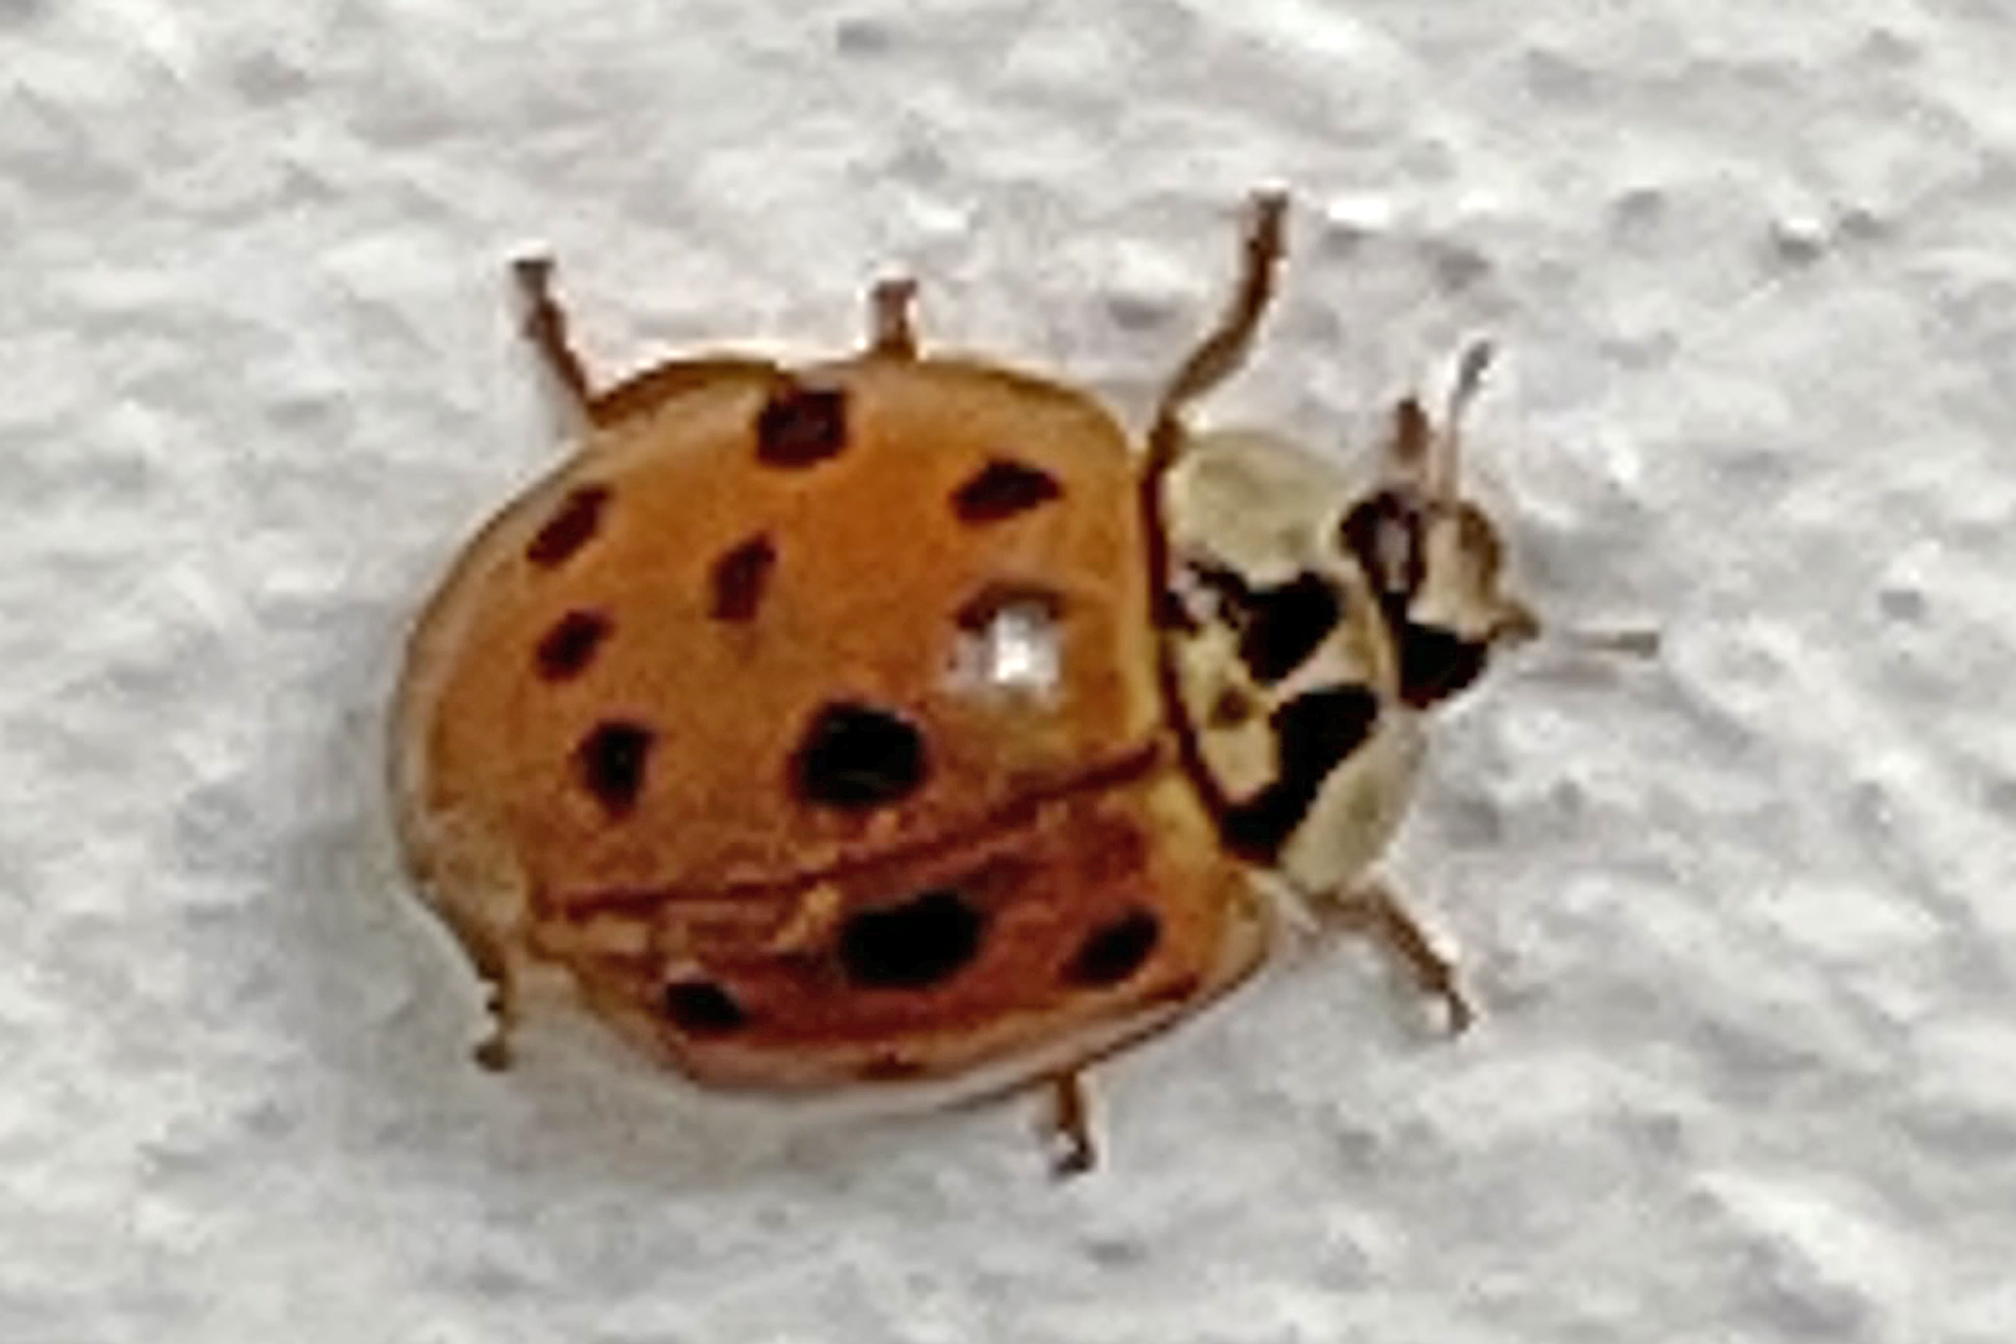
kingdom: Animalia
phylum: Arthropoda
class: Insecta
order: Coleoptera
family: Coccinellidae
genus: Harmonia
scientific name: Harmonia axyridis
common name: Harlequin ladybird
